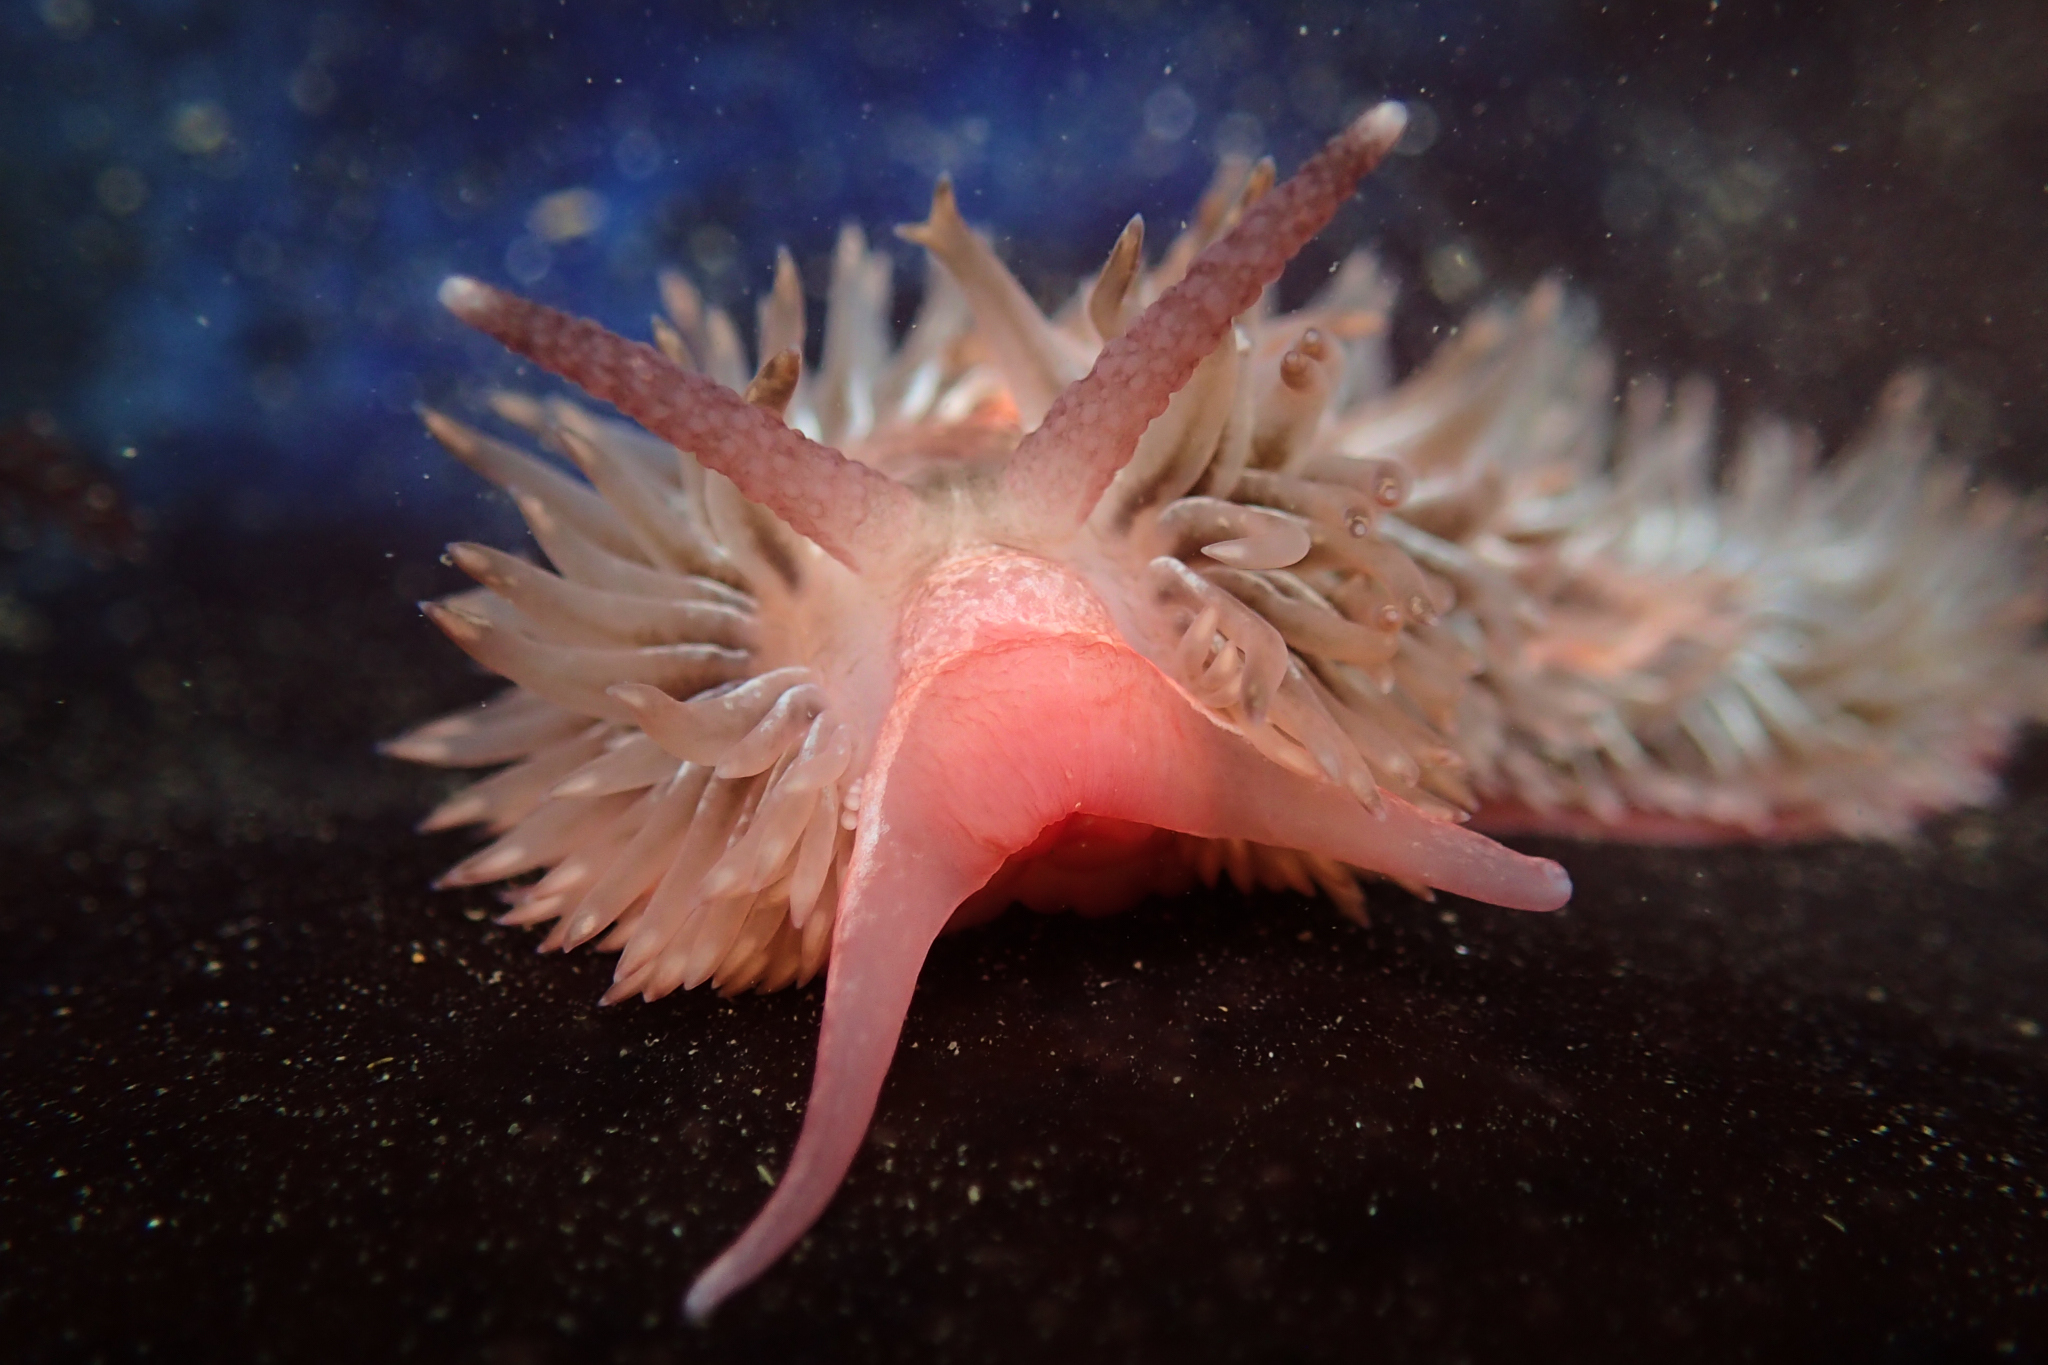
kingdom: Animalia
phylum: Mollusca
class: Gastropoda
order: Nudibranchia
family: Aeolidiidae
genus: Aeolidia
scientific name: Aeolidia loui
